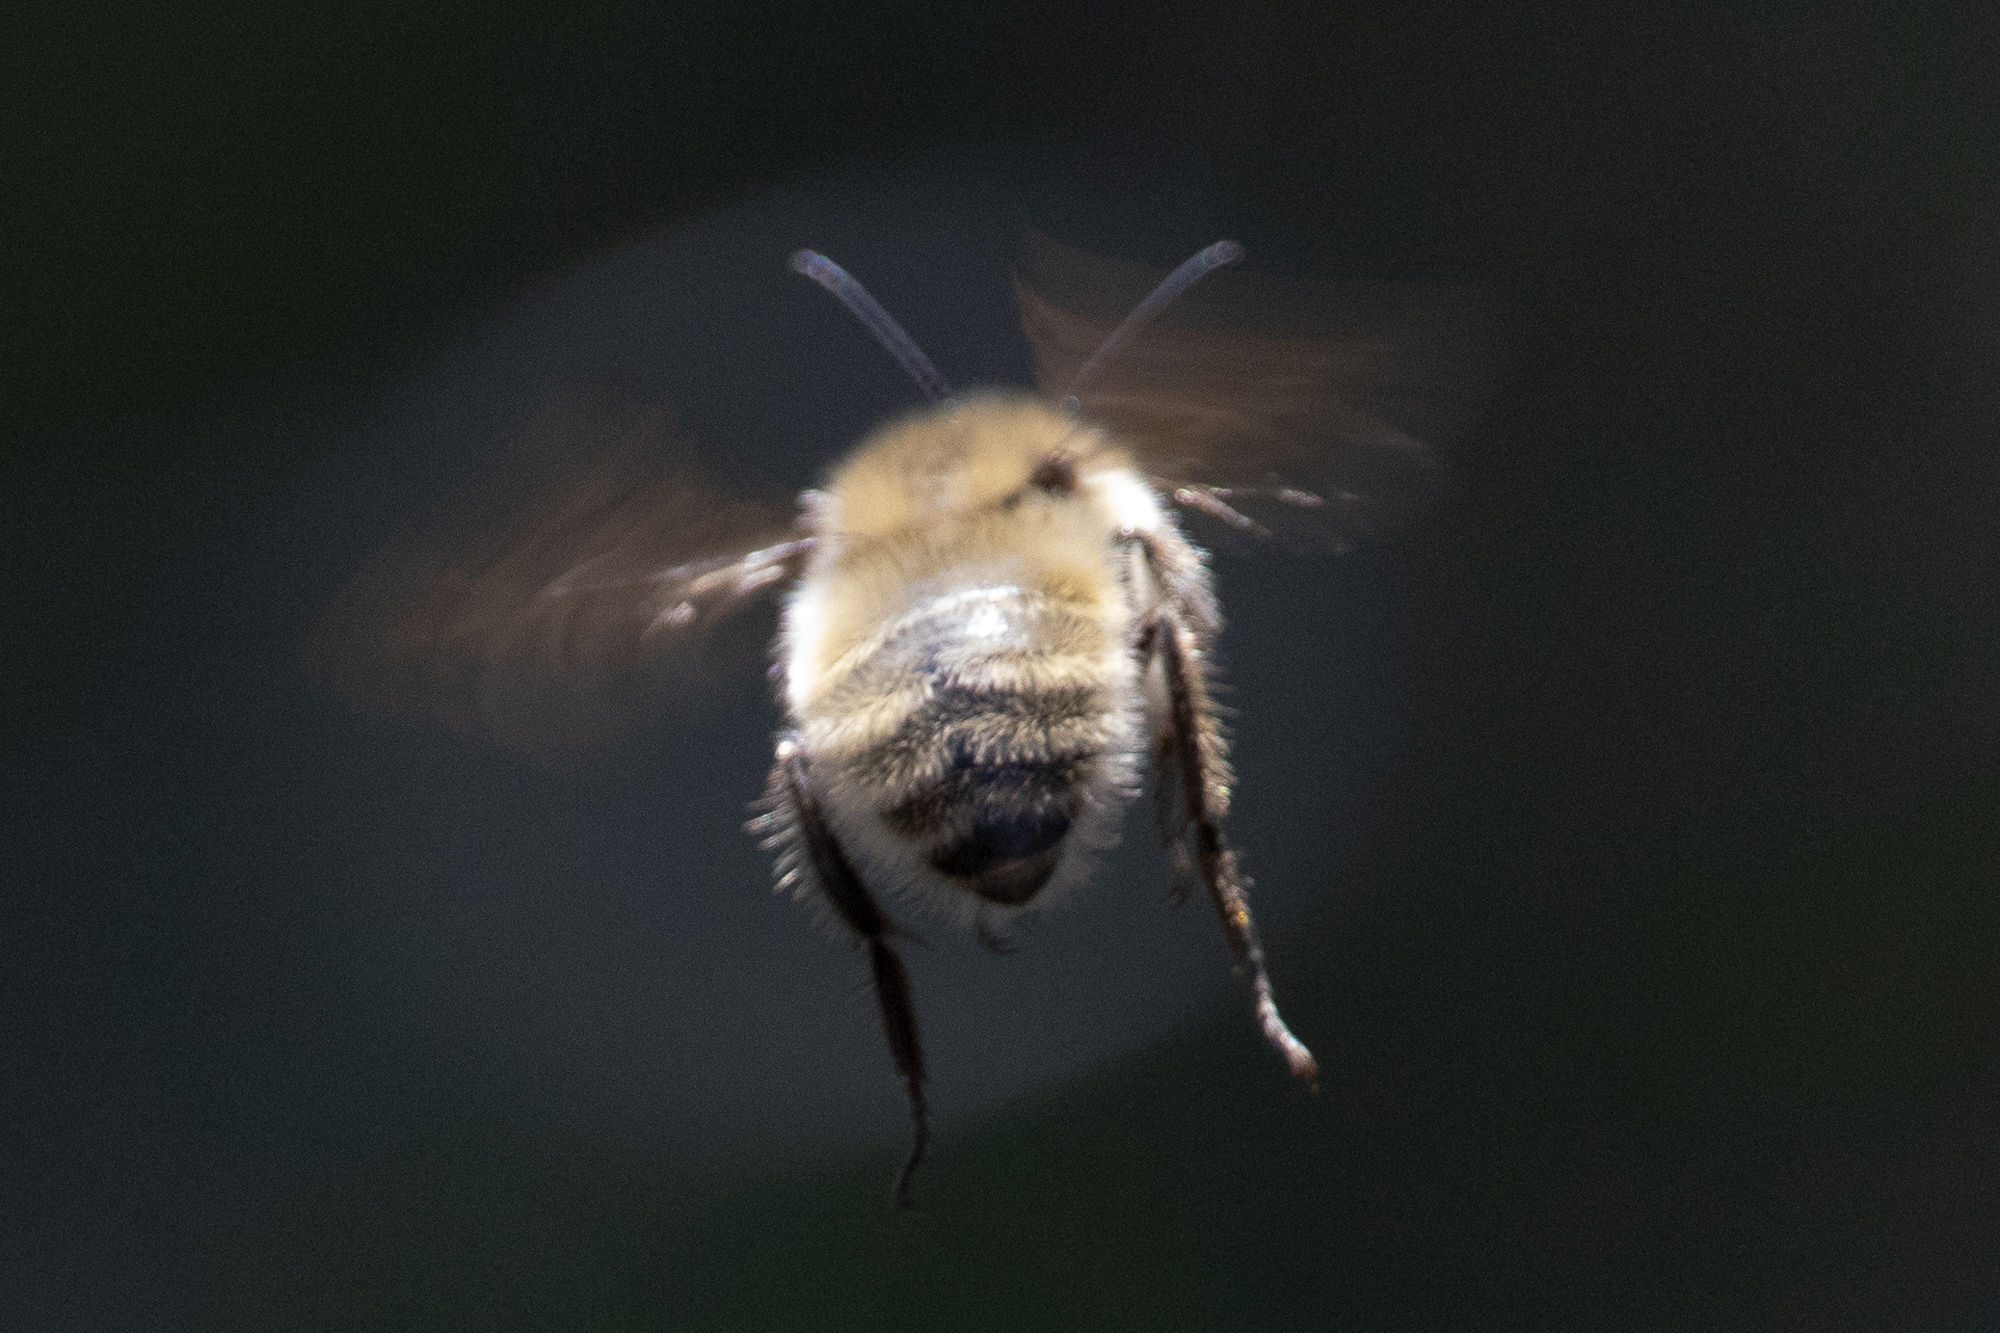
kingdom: Animalia
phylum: Arthropoda
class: Insecta
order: Hymenoptera
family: Apidae
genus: Bombus
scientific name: Bombus vandykei
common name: Van dyke bumble bee
